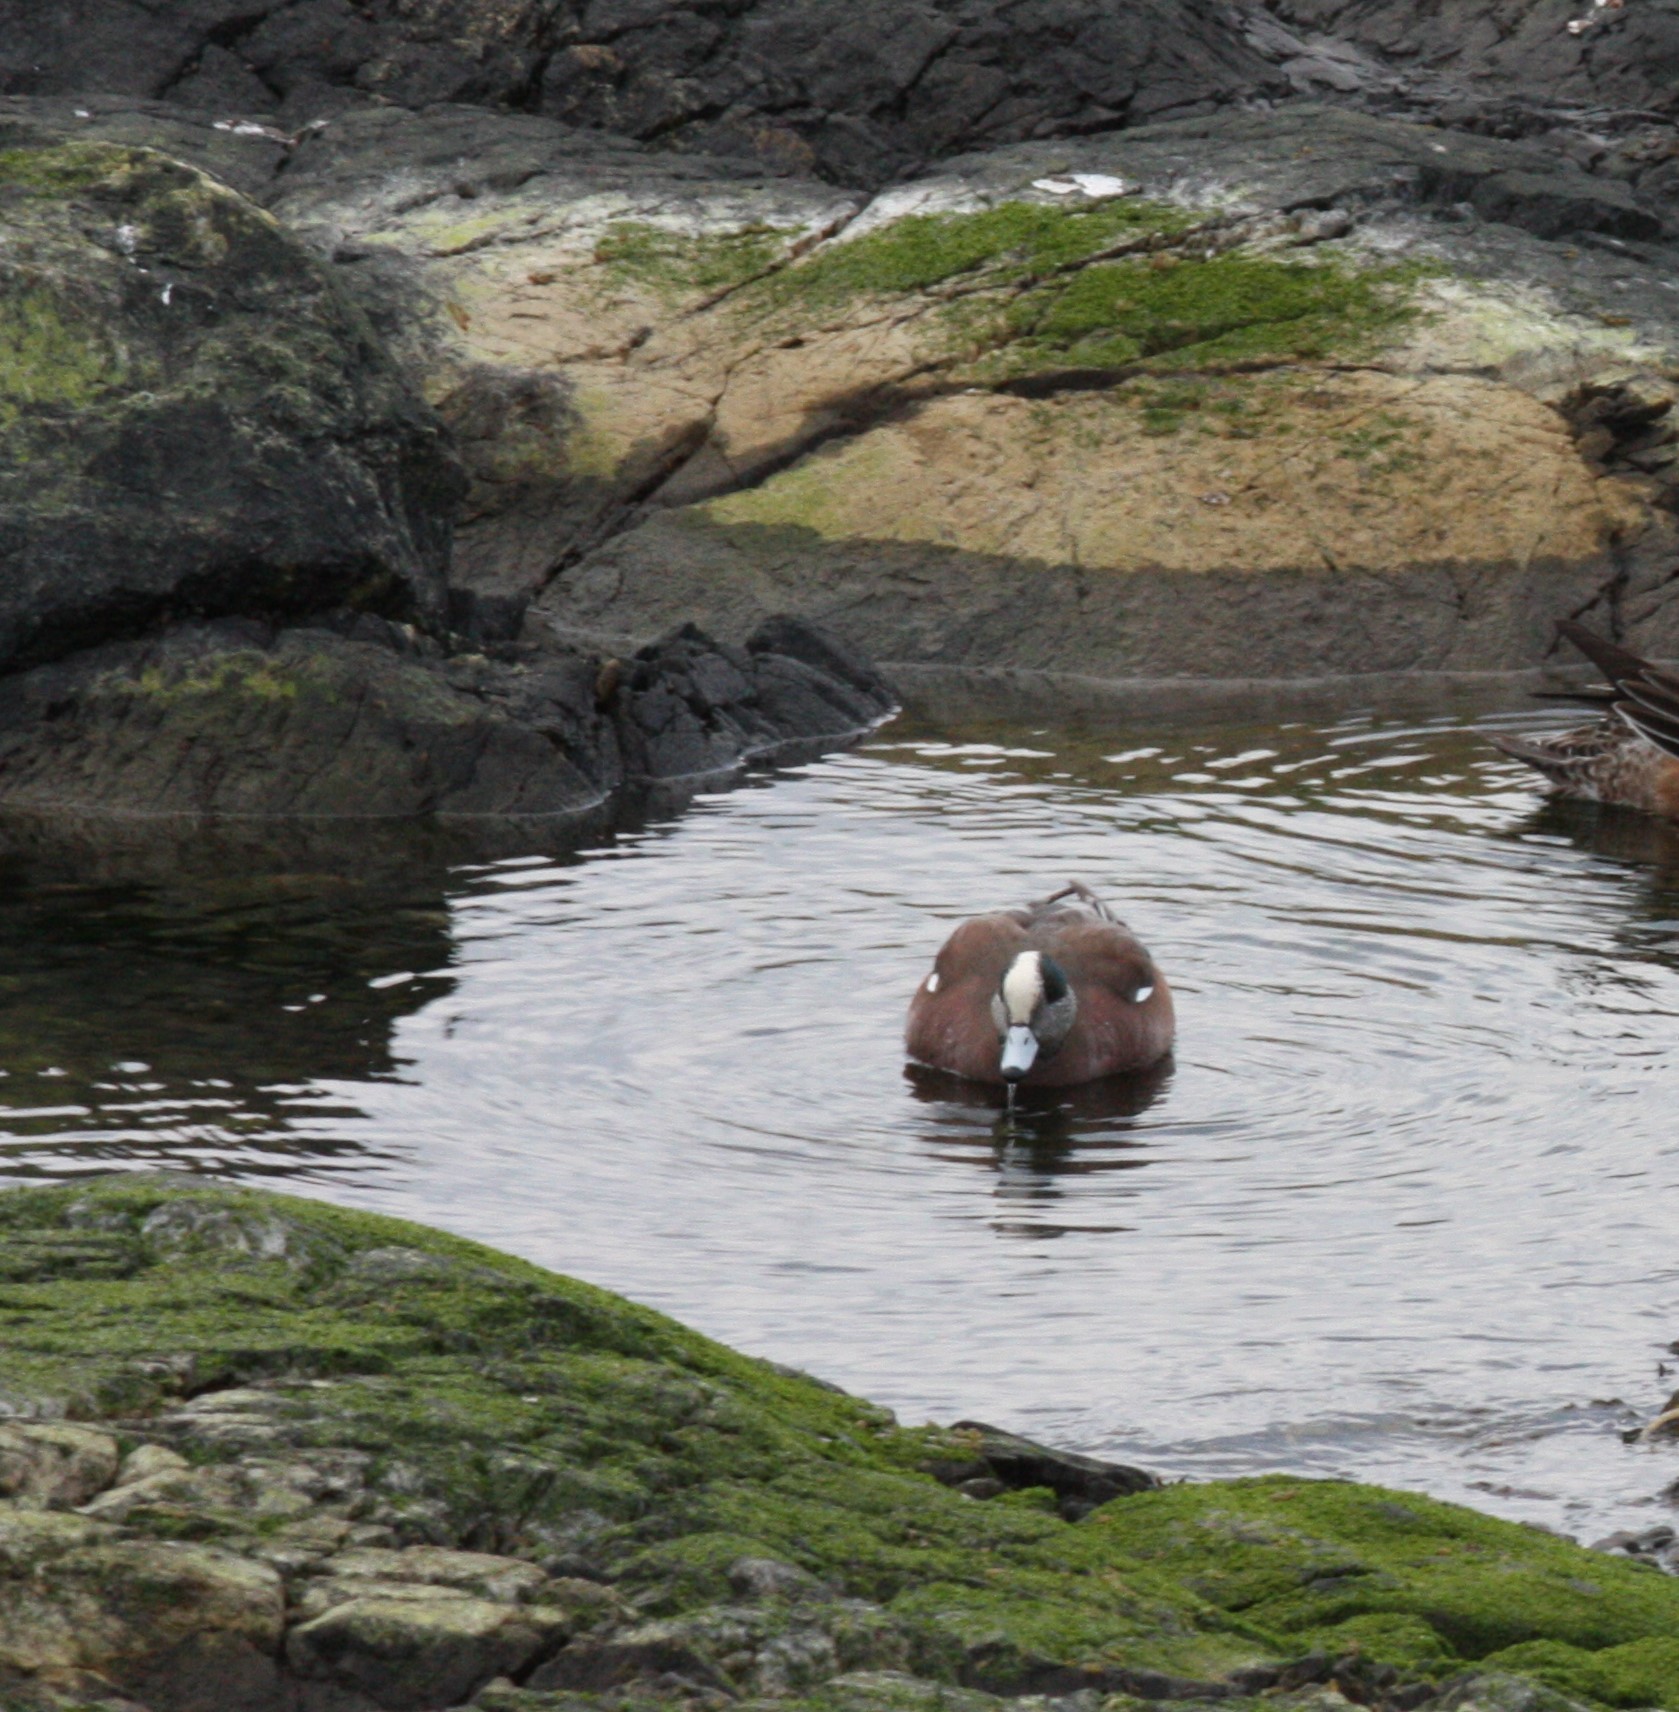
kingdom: Animalia
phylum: Chordata
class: Aves
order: Anseriformes
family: Anatidae
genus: Mareca
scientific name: Mareca americana
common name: American wigeon
